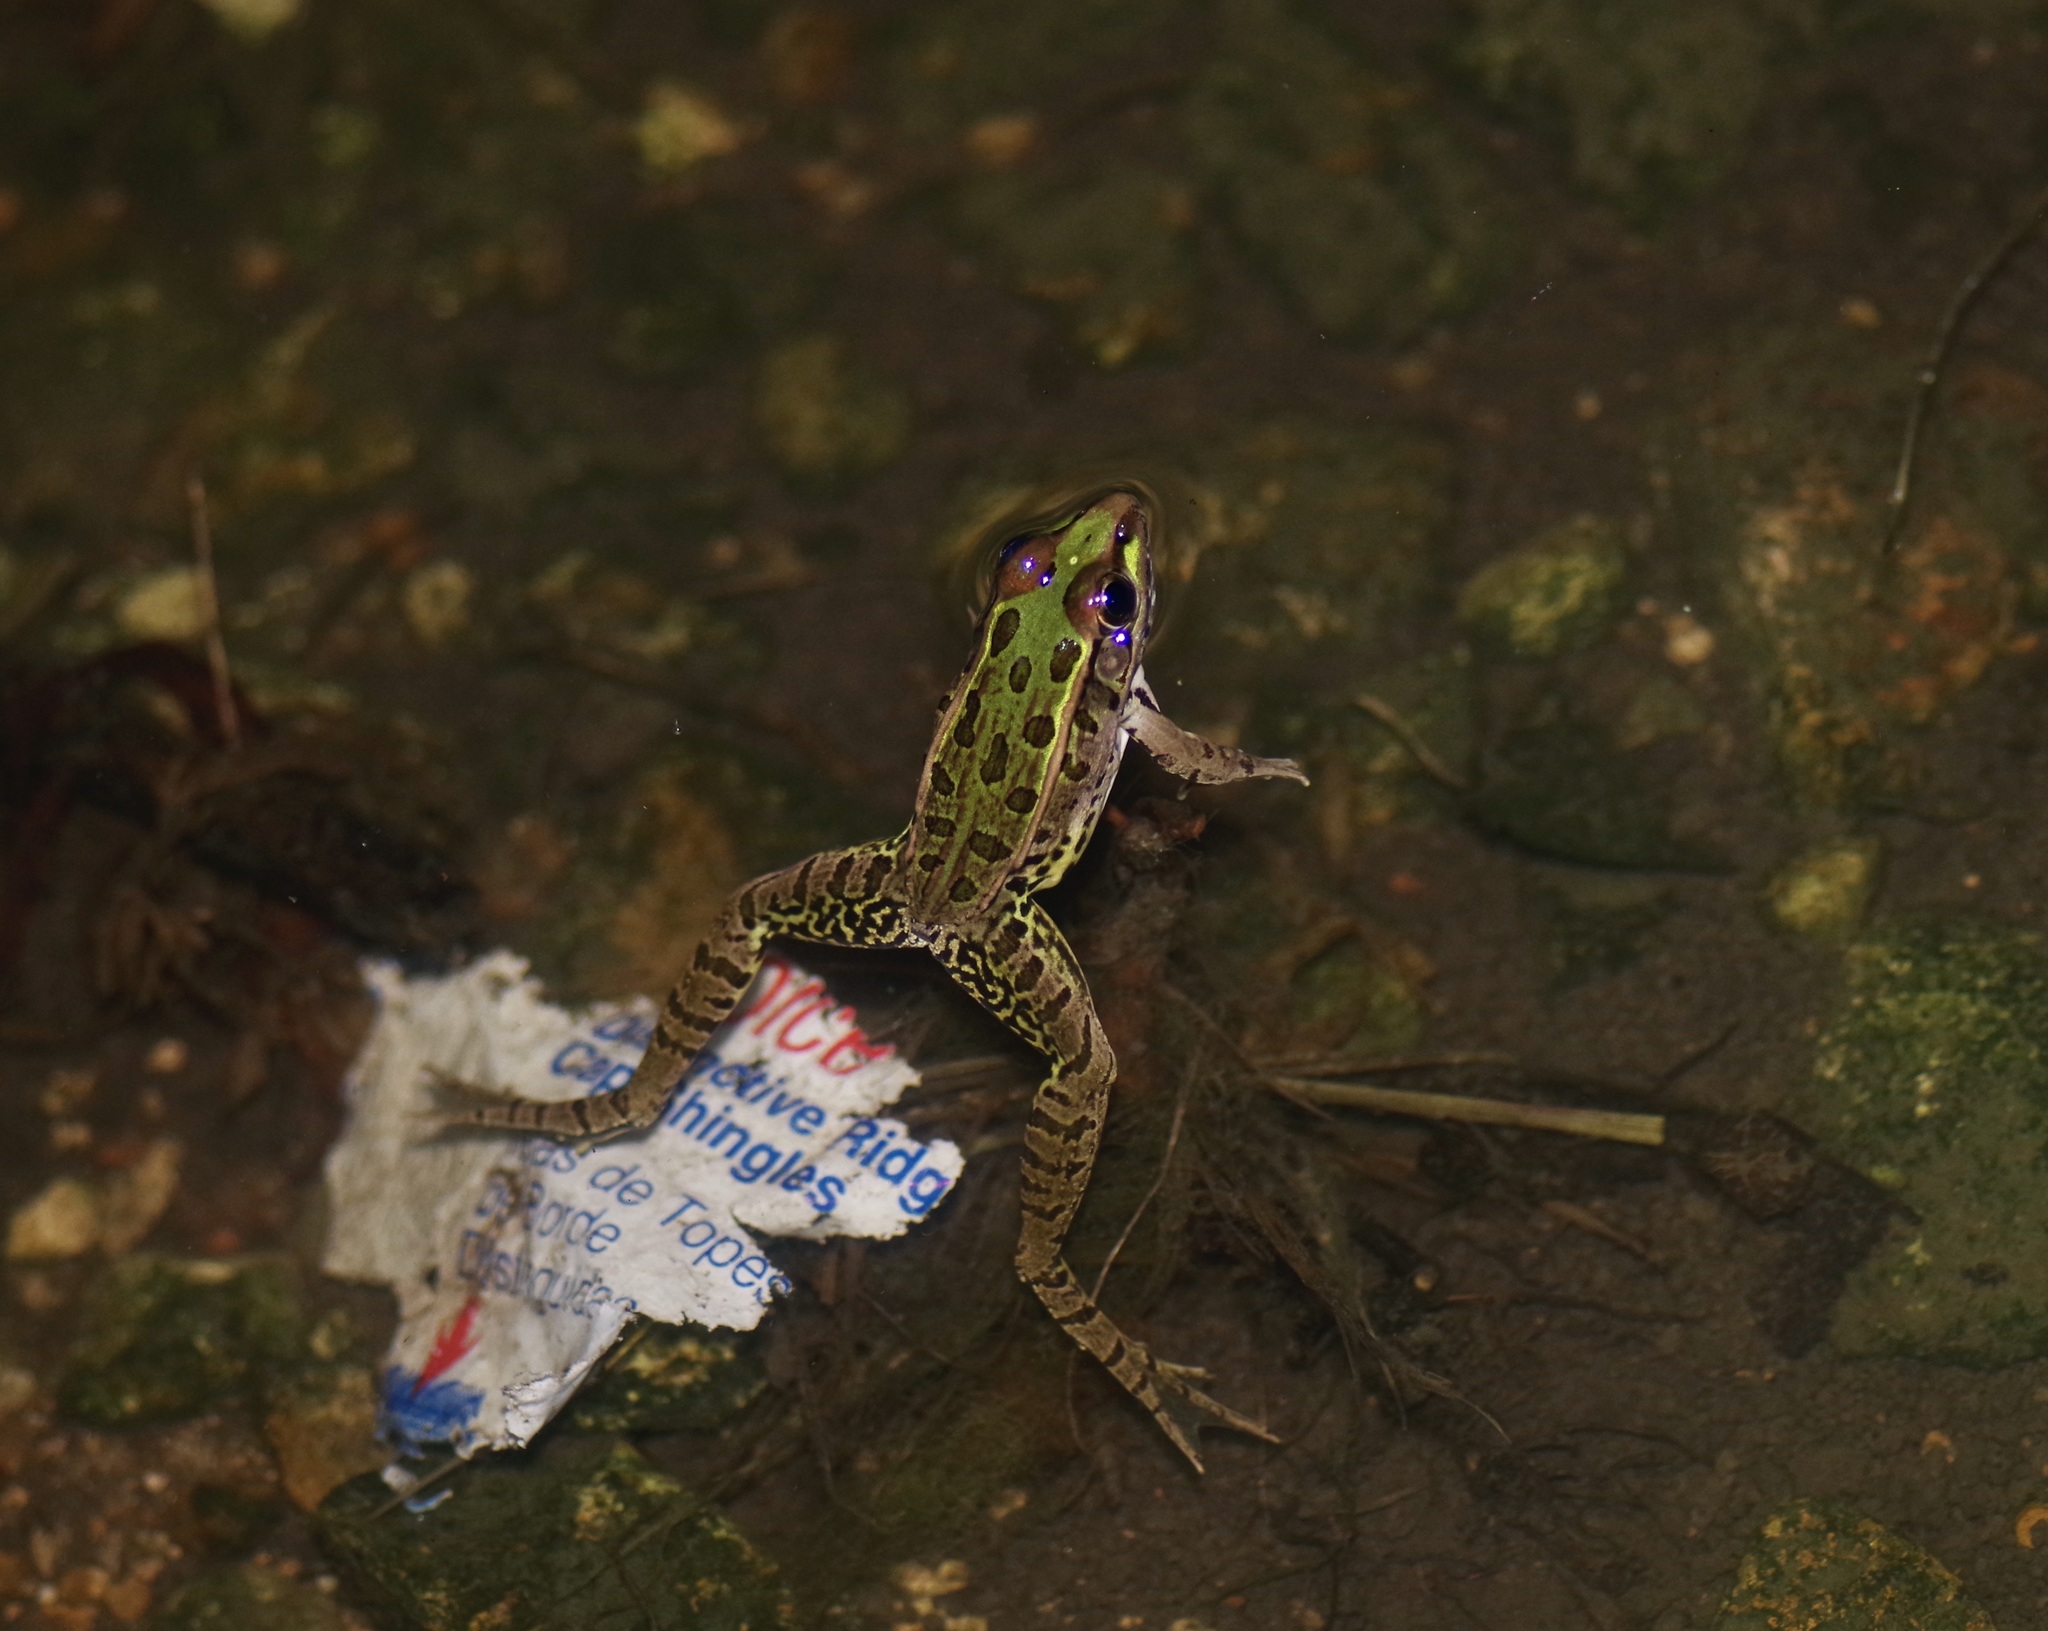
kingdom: Animalia
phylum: Chordata
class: Amphibia
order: Anura
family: Ranidae
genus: Lithobates
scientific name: Lithobates berlandieri
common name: Rio grande leopard frog
